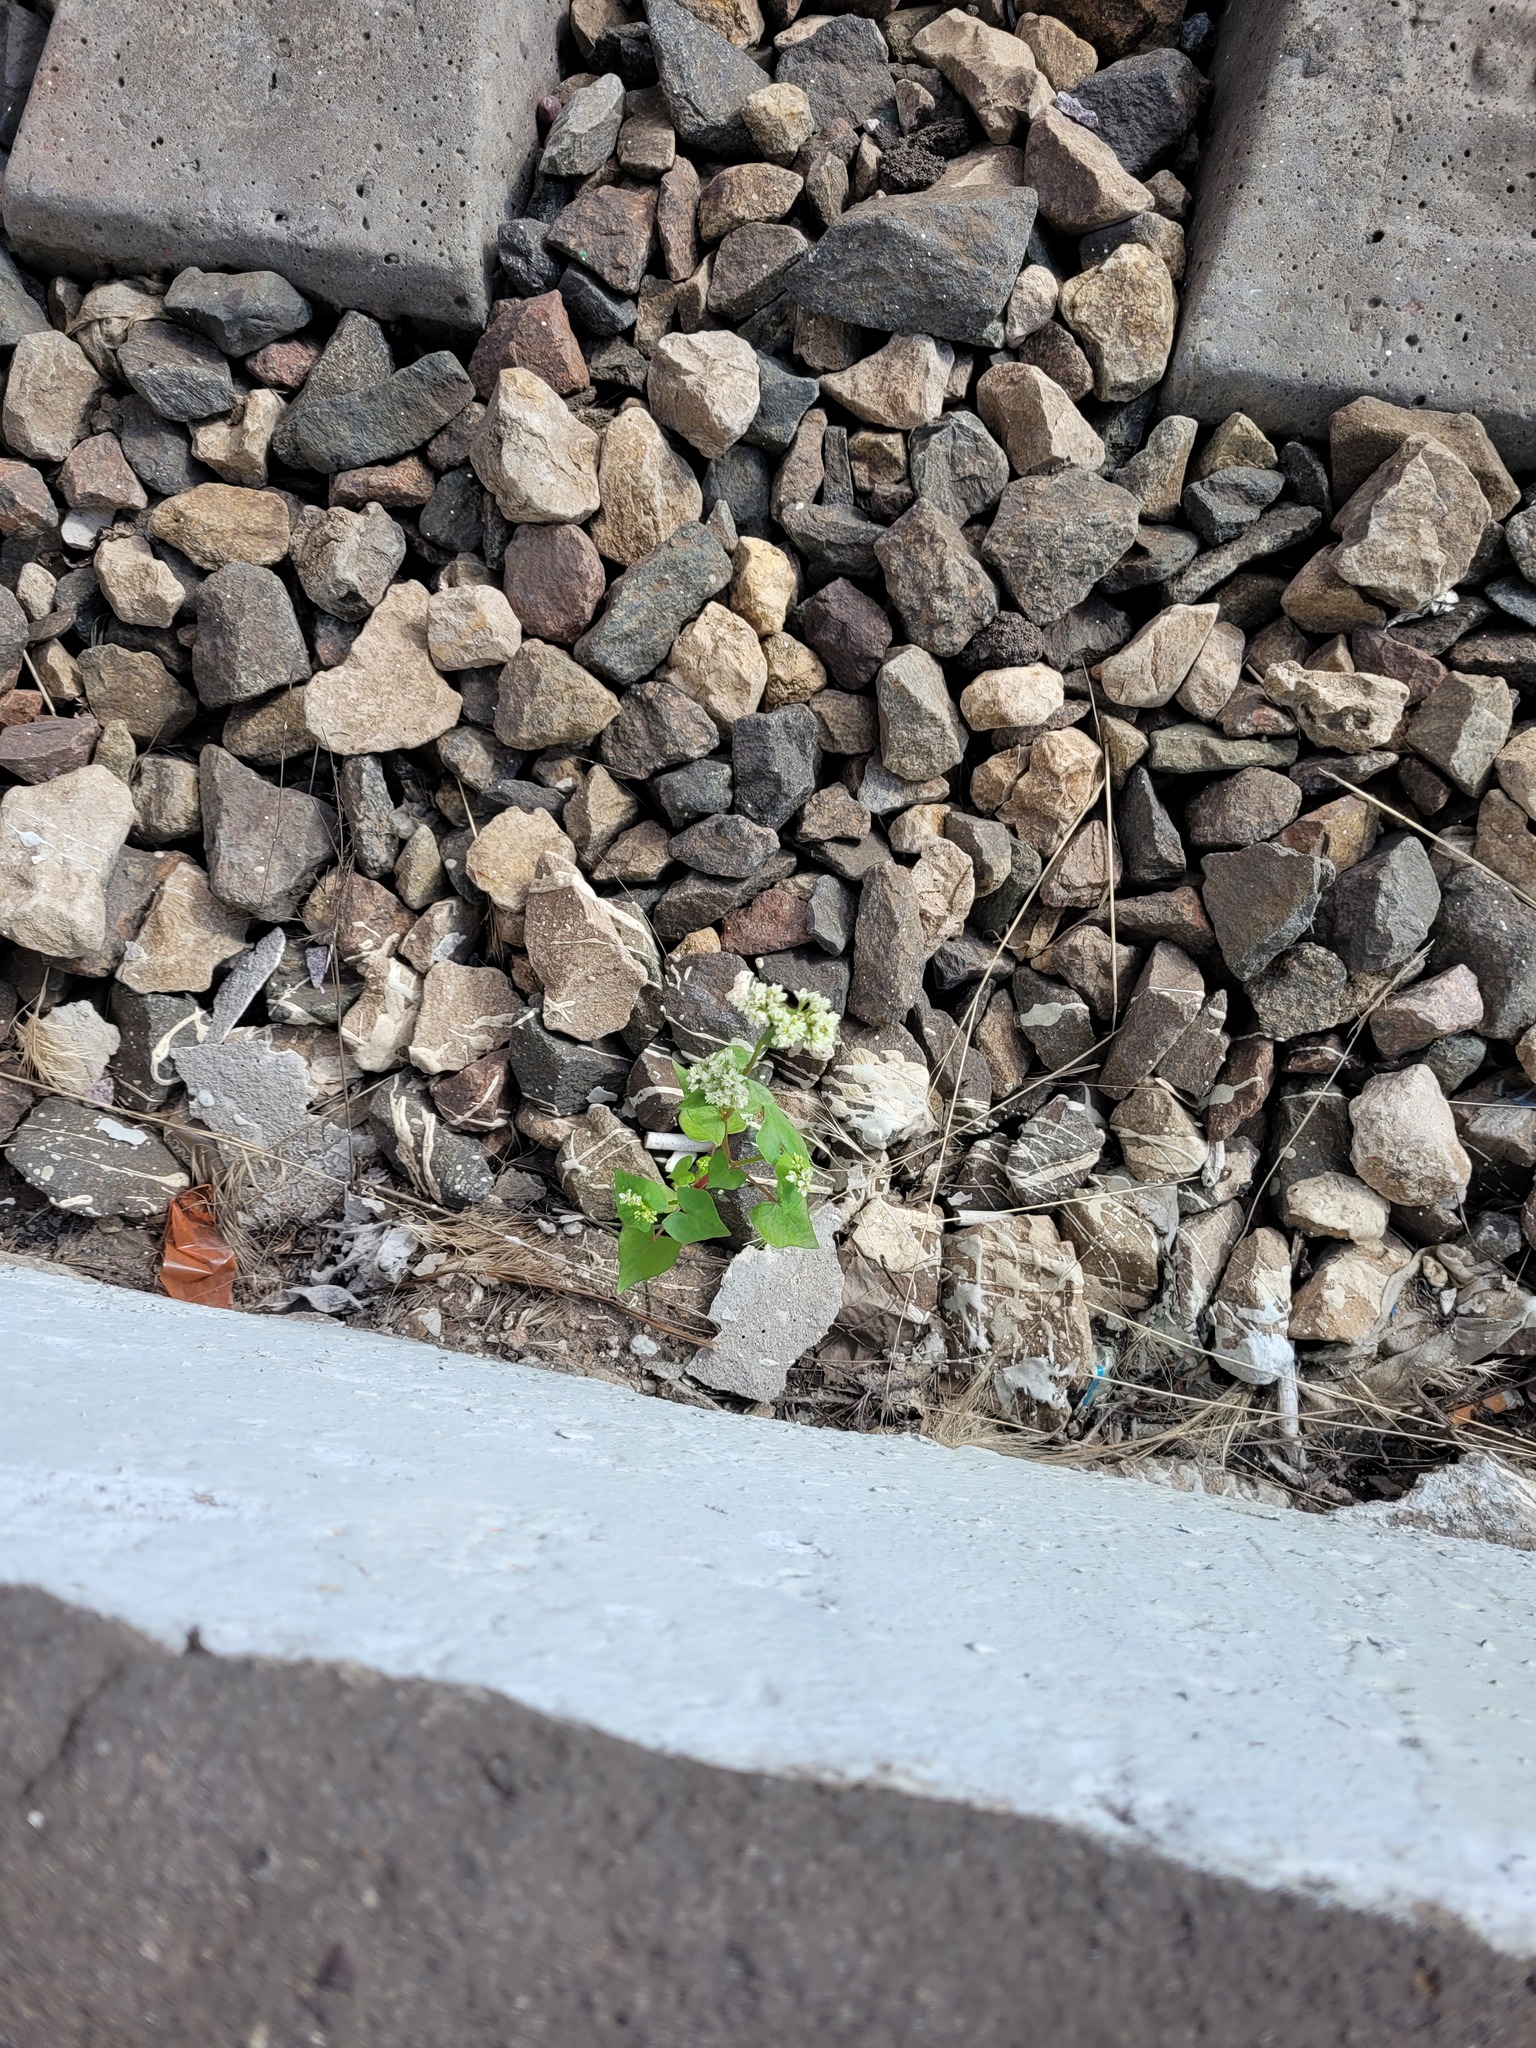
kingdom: Plantae
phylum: Tracheophyta
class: Magnoliopsida
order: Caryophyllales
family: Polygonaceae
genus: Fagopyrum
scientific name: Fagopyrum esculentum
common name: Buckwheat
